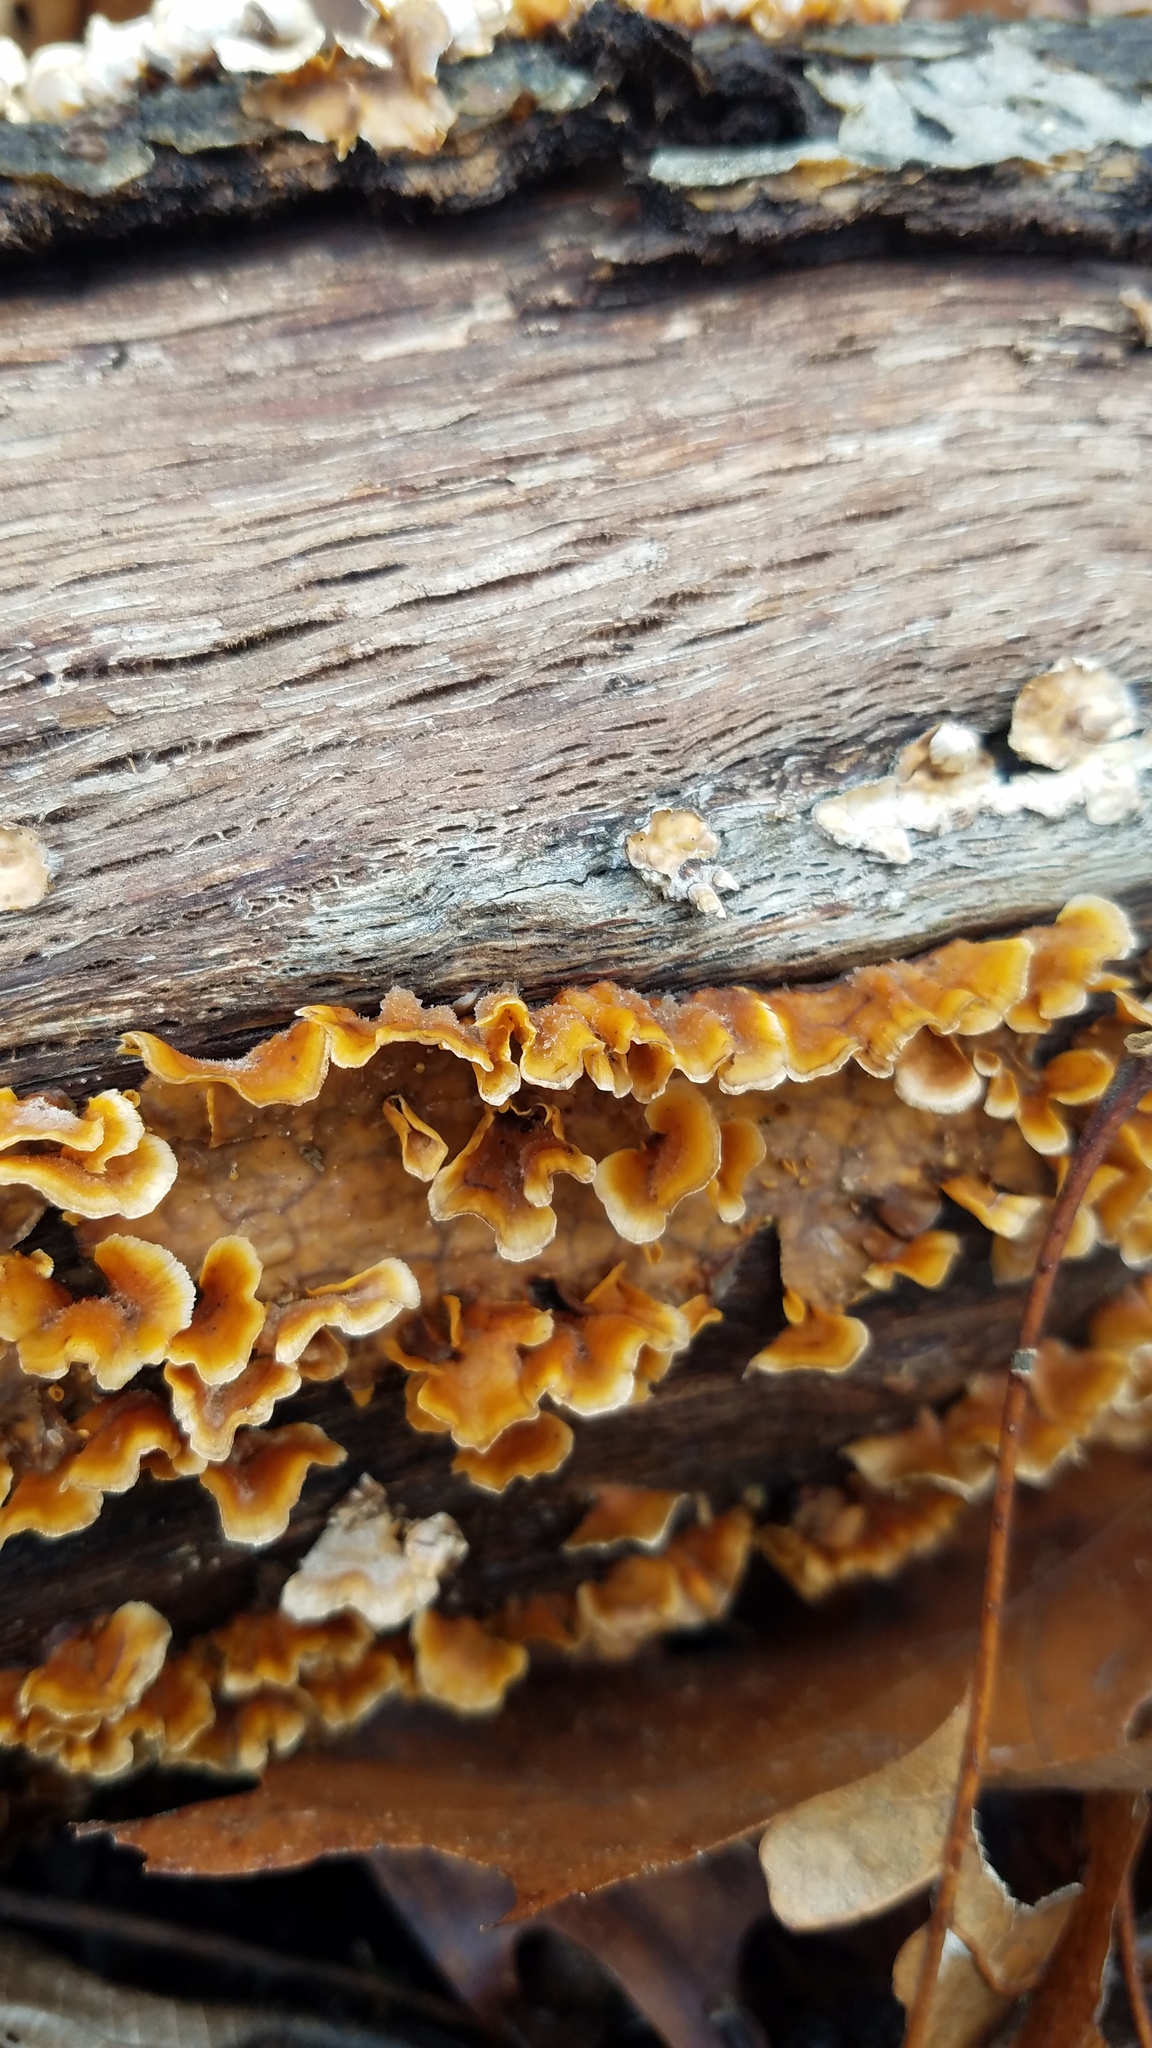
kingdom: Fungi
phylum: Basidiomycota
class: Agaricomycetes
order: Russulales
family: Stereaceae
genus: Stereum
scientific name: Stereum complicatum
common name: Crowded parchment
